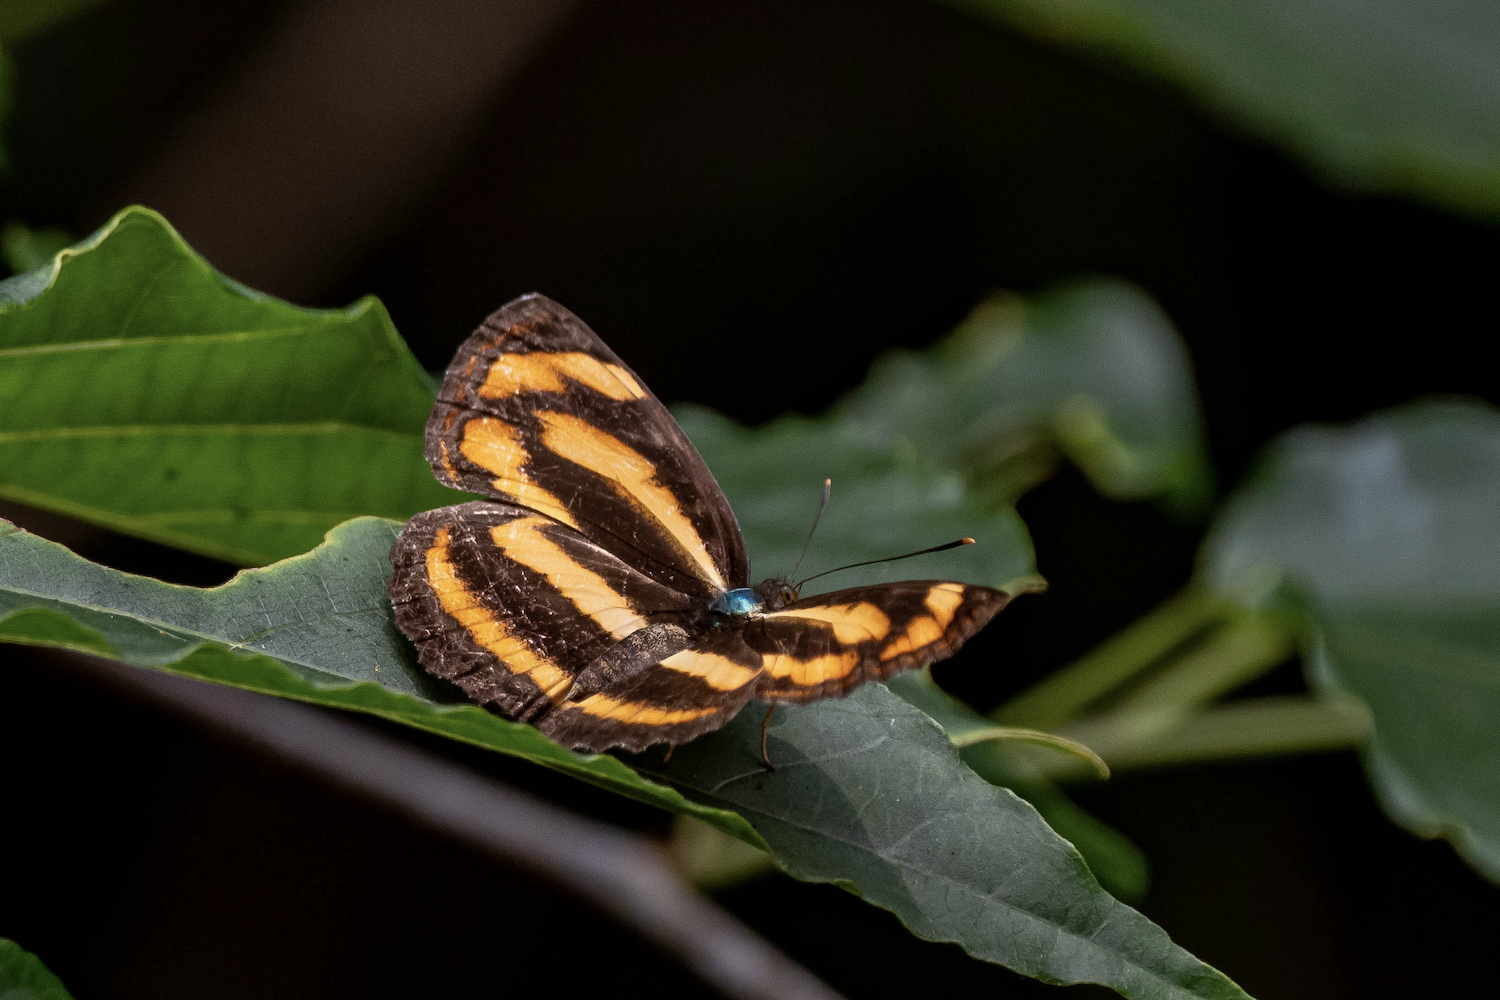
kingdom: Animalia
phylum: Arthropoda
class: Insecta
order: Lepidoptera
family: Nymphalidae
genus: Pantoporia
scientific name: Pantoporia hordonia
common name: Common lascar
